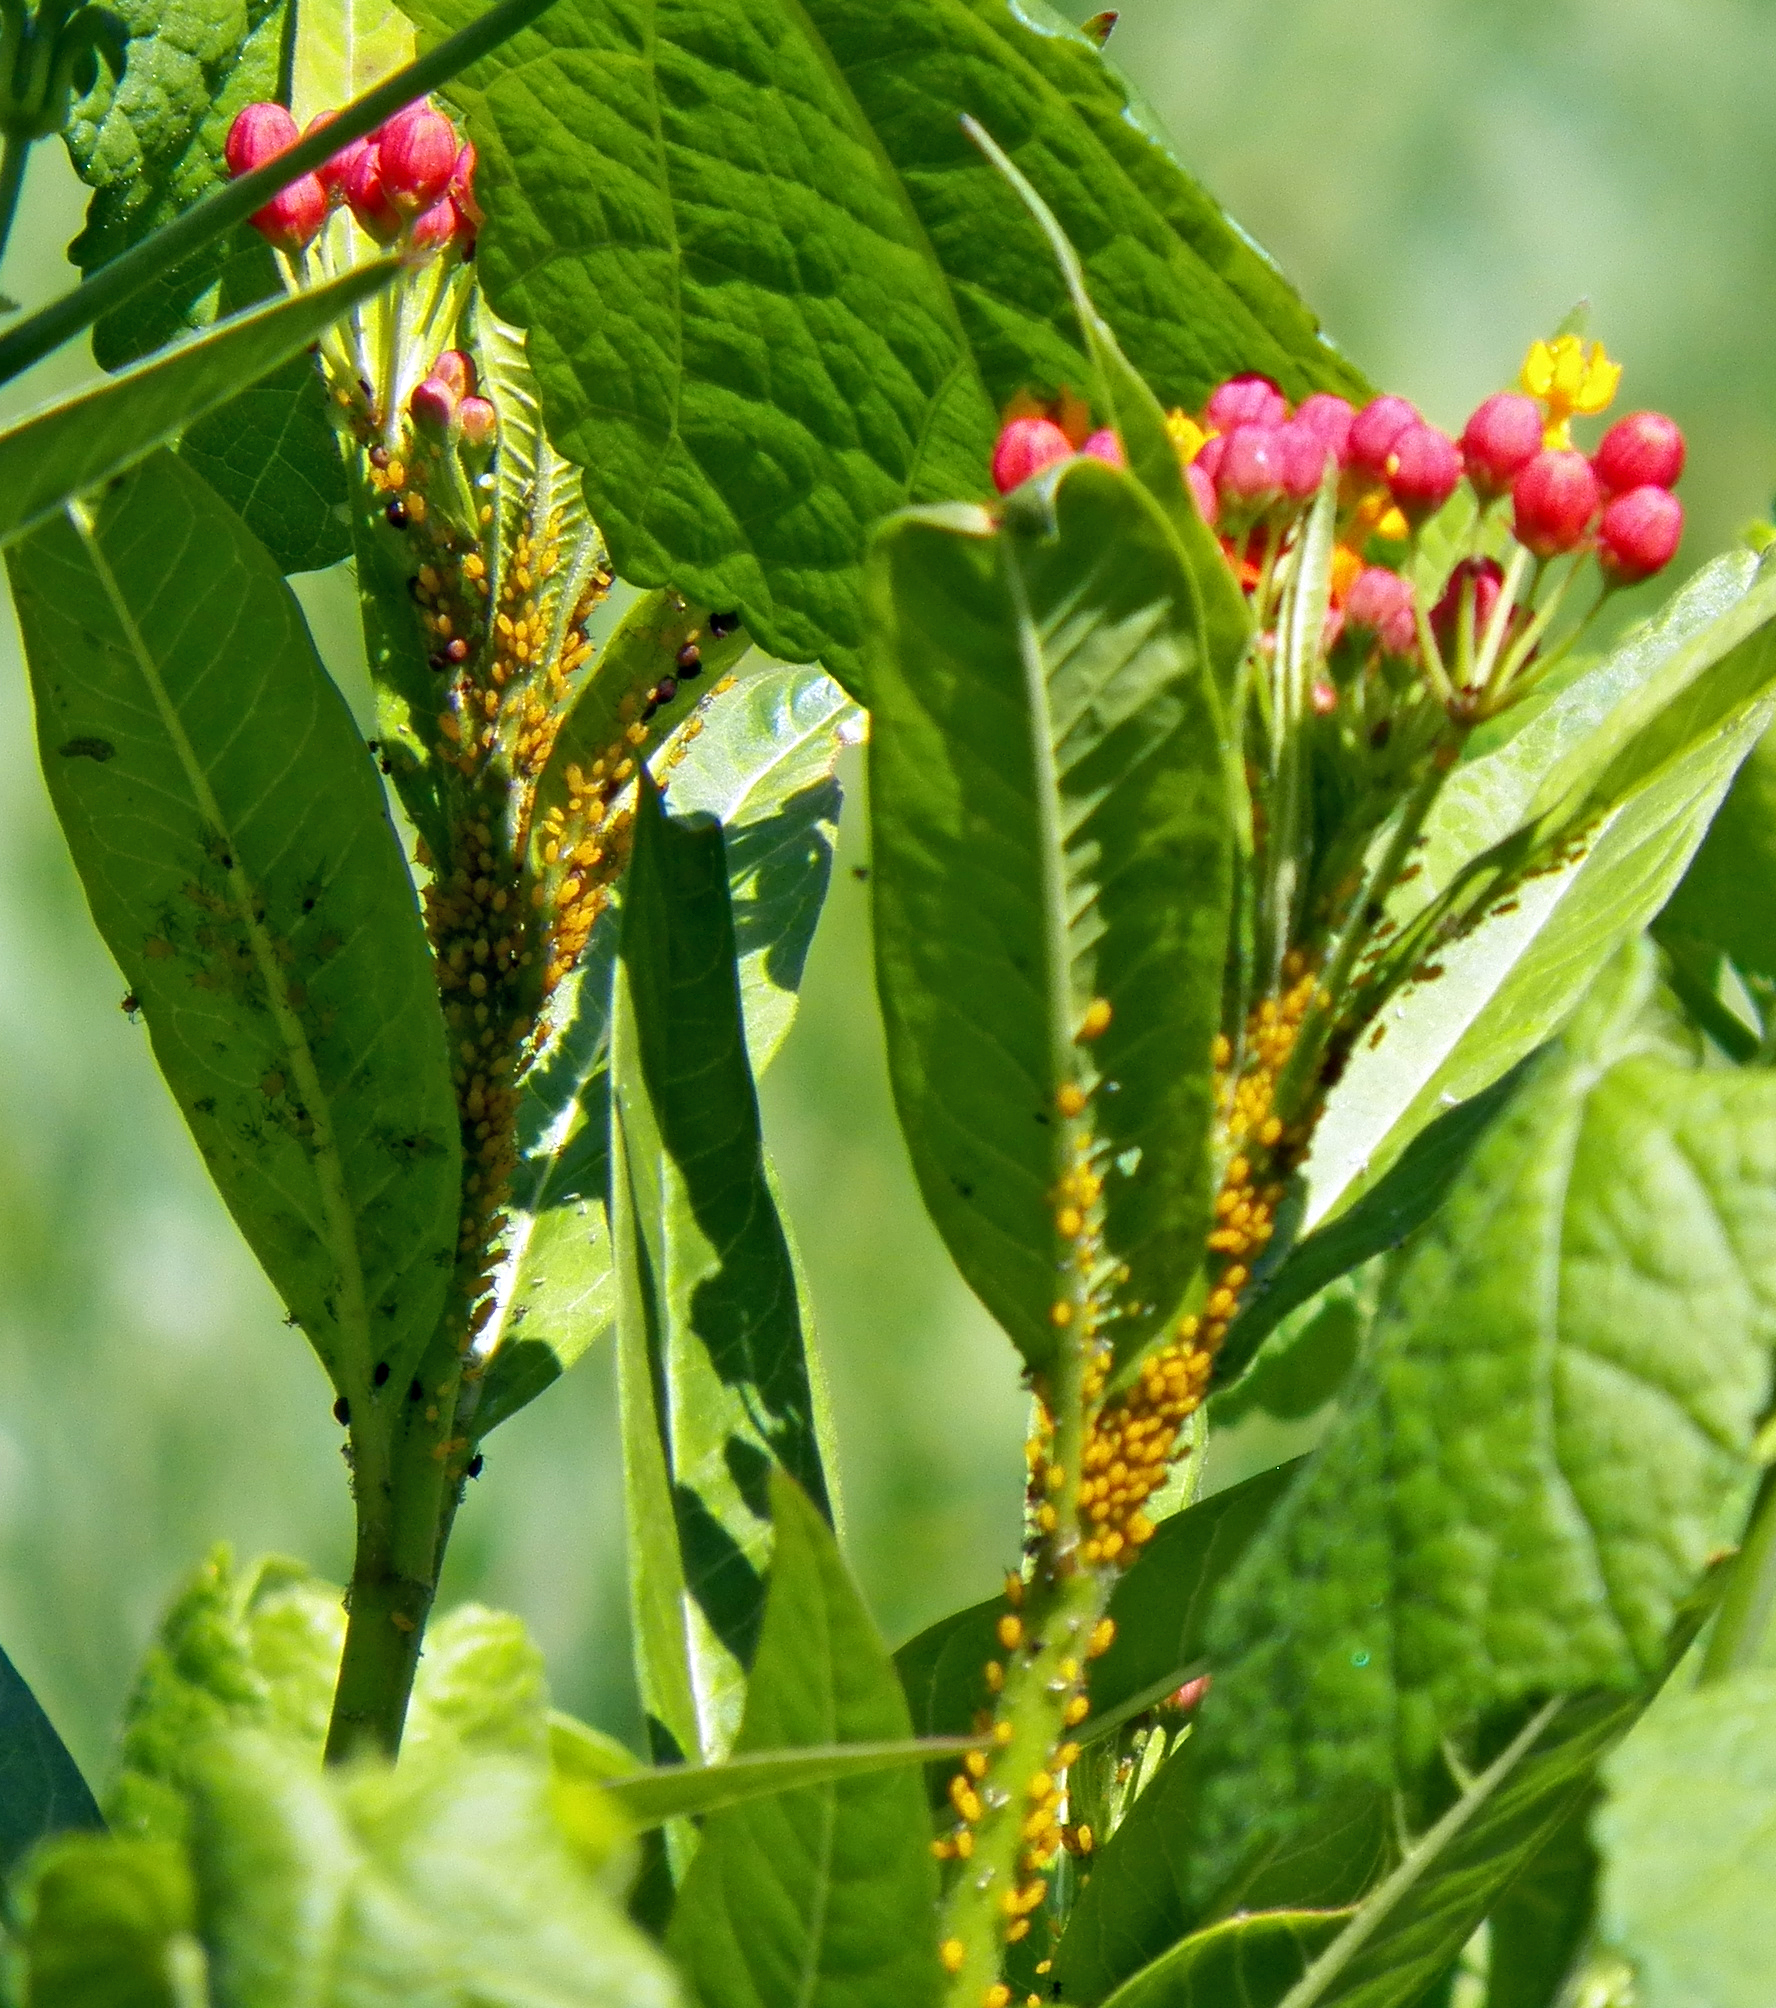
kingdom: Animalia
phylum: Arthropoda
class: Insecta
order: Hemiptera
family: Aphididae
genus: Aphis
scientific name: Aphis nerii
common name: Oleander aphid
